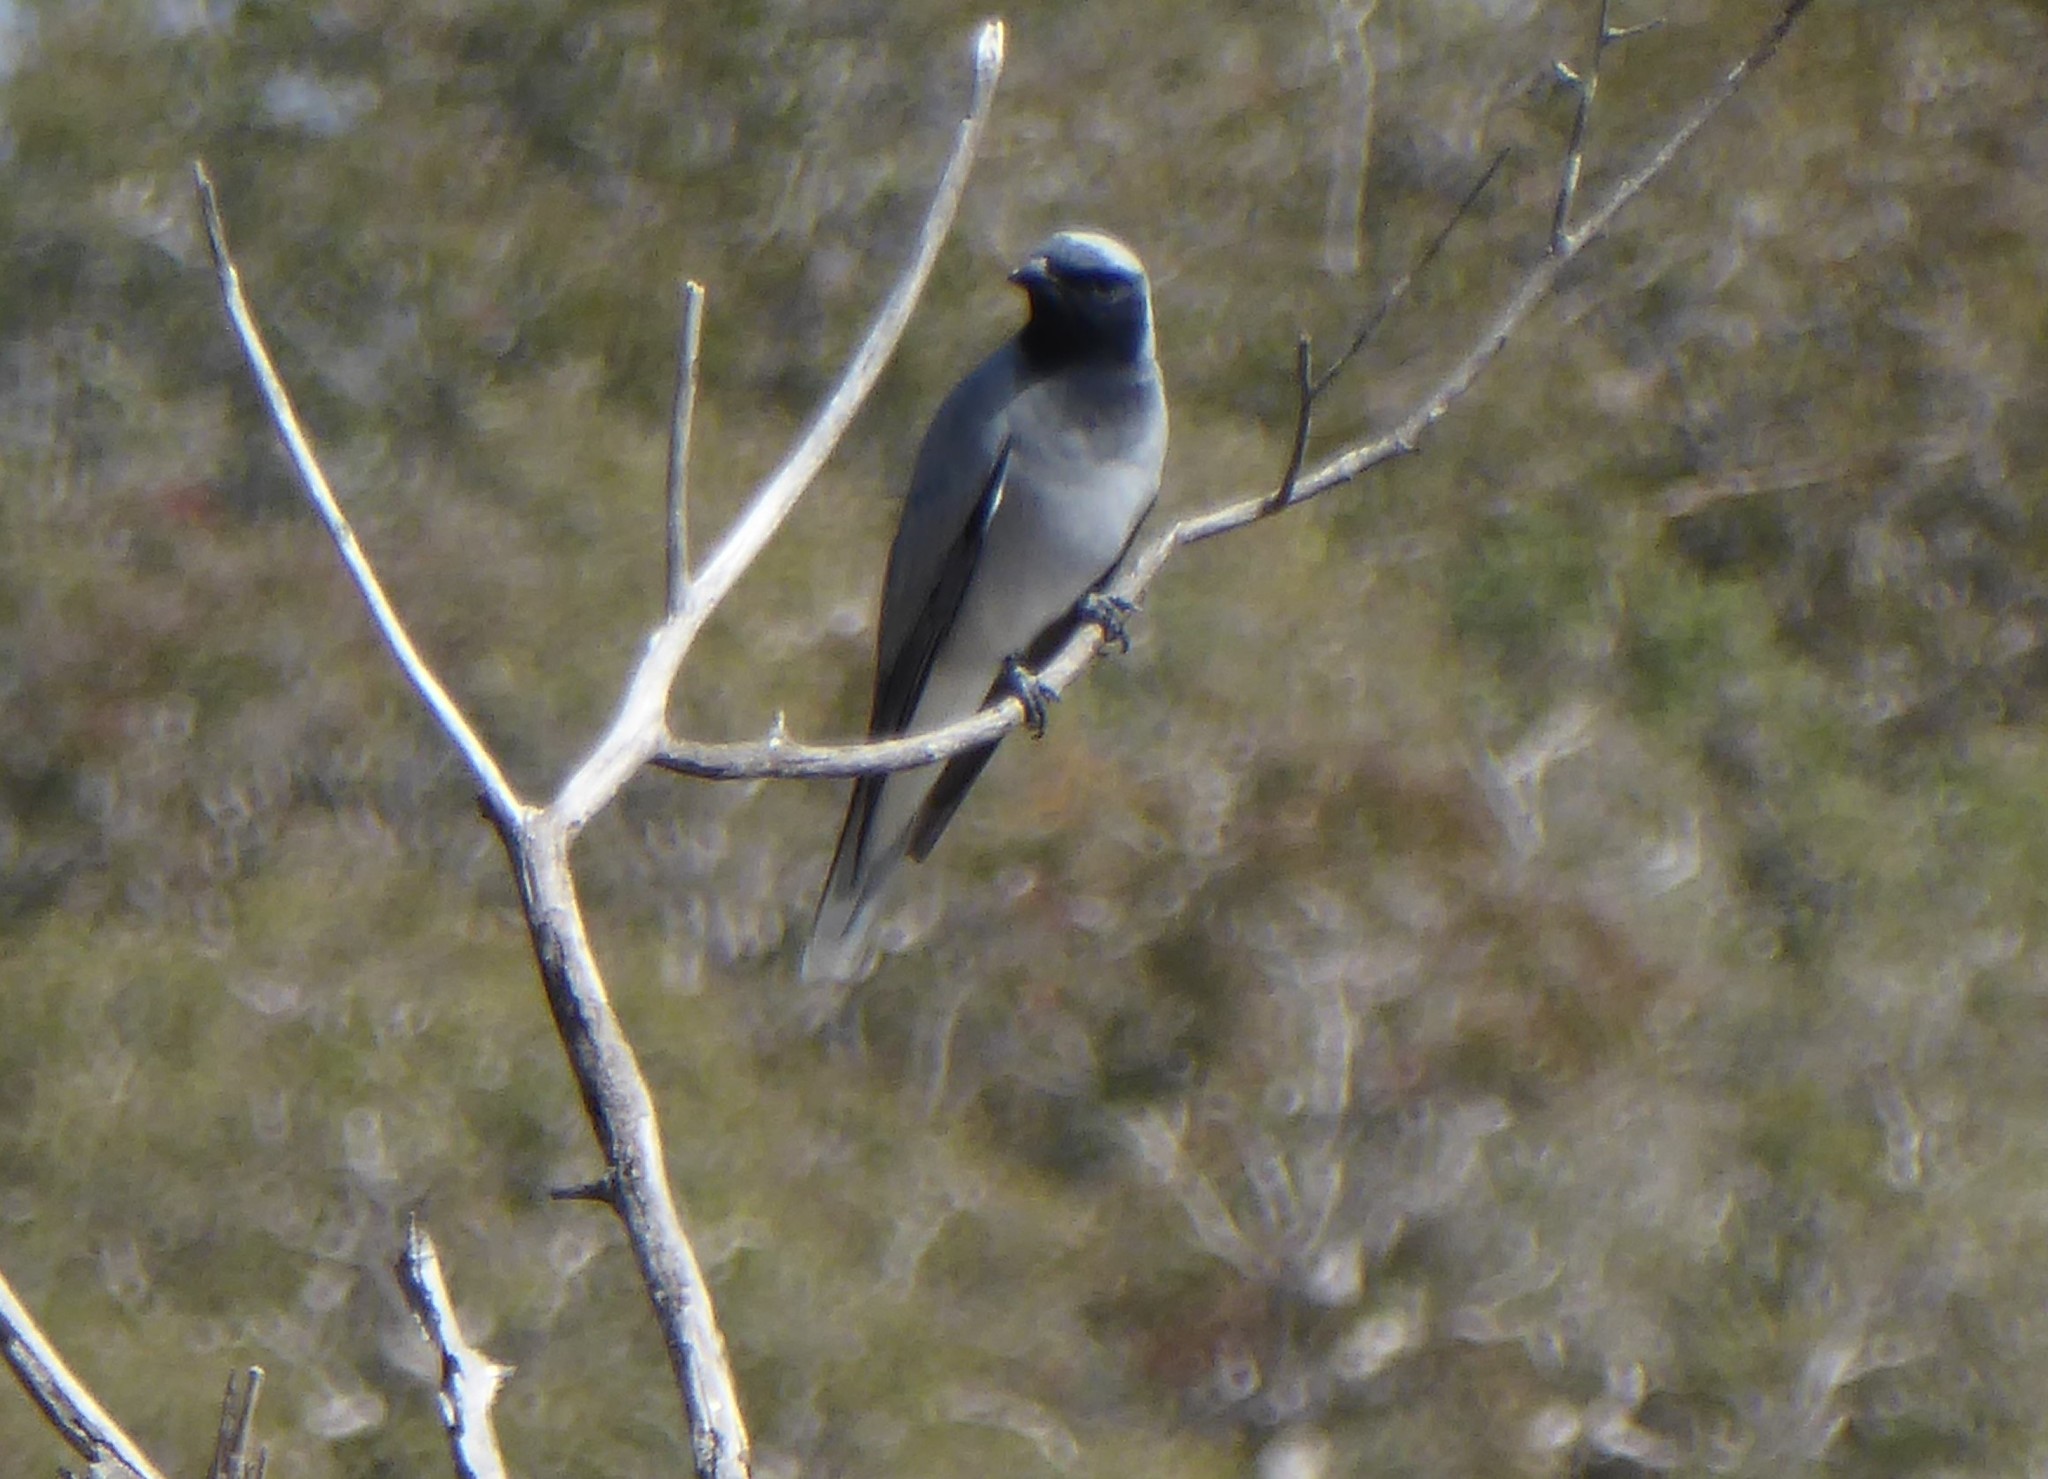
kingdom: Animalia
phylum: Chordata
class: Aves
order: Passeriformes
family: Campephagidae
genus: Coracina
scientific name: Coracina novaehollandiae
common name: Black-faced cuckooshrike
